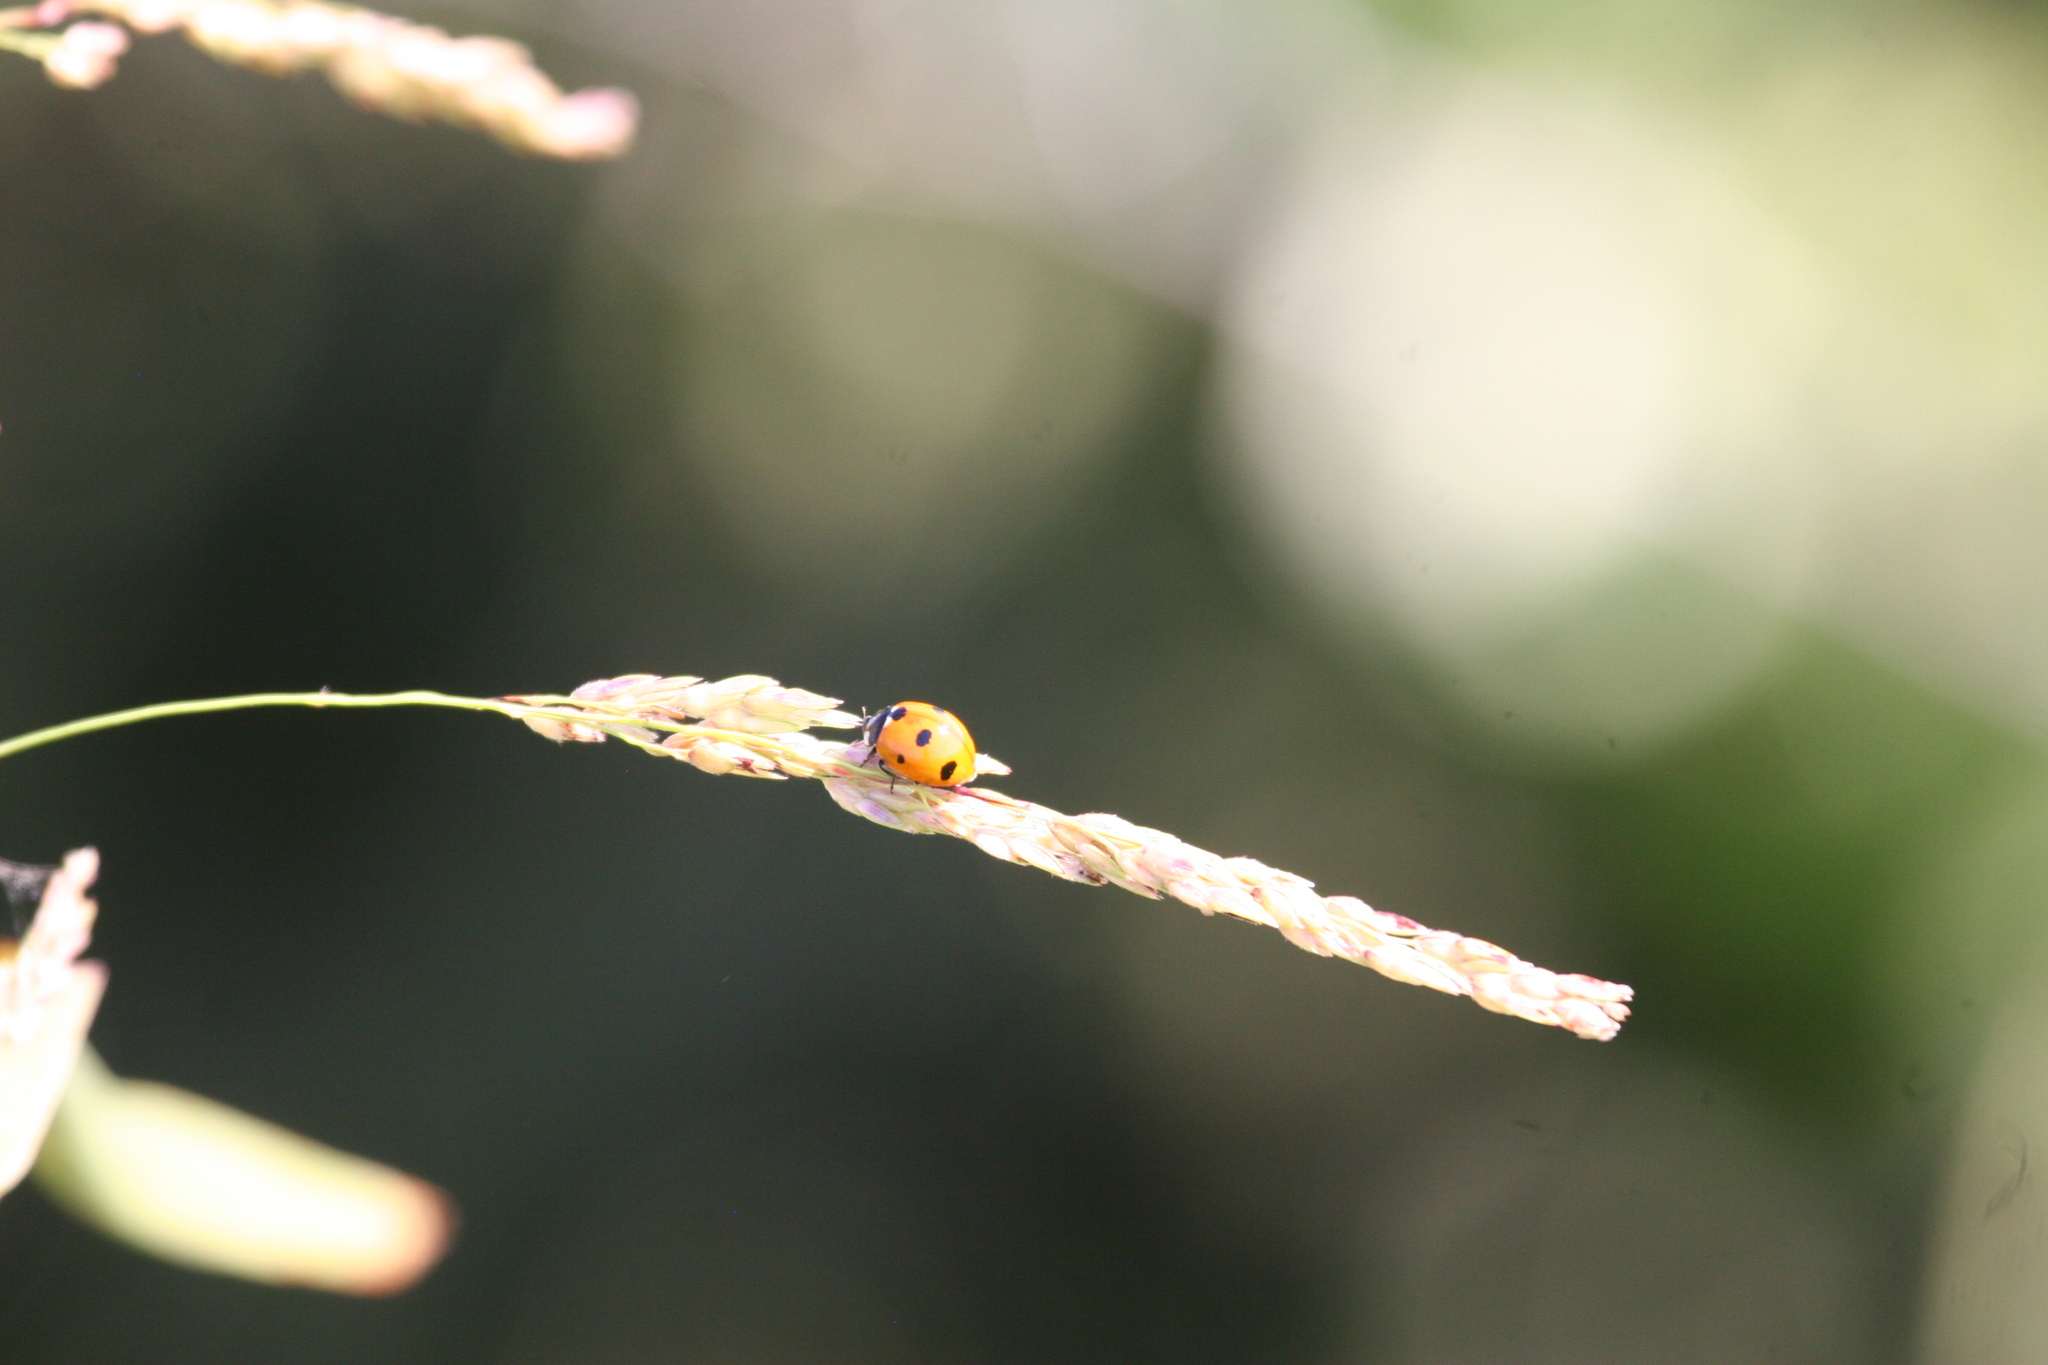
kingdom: Animalia
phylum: Arthropoda
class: Insecta
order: Coleoptera
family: Coccinellidae
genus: Coccinella
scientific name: Coccinella septempunctata
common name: Sevenspotted lady beetle
